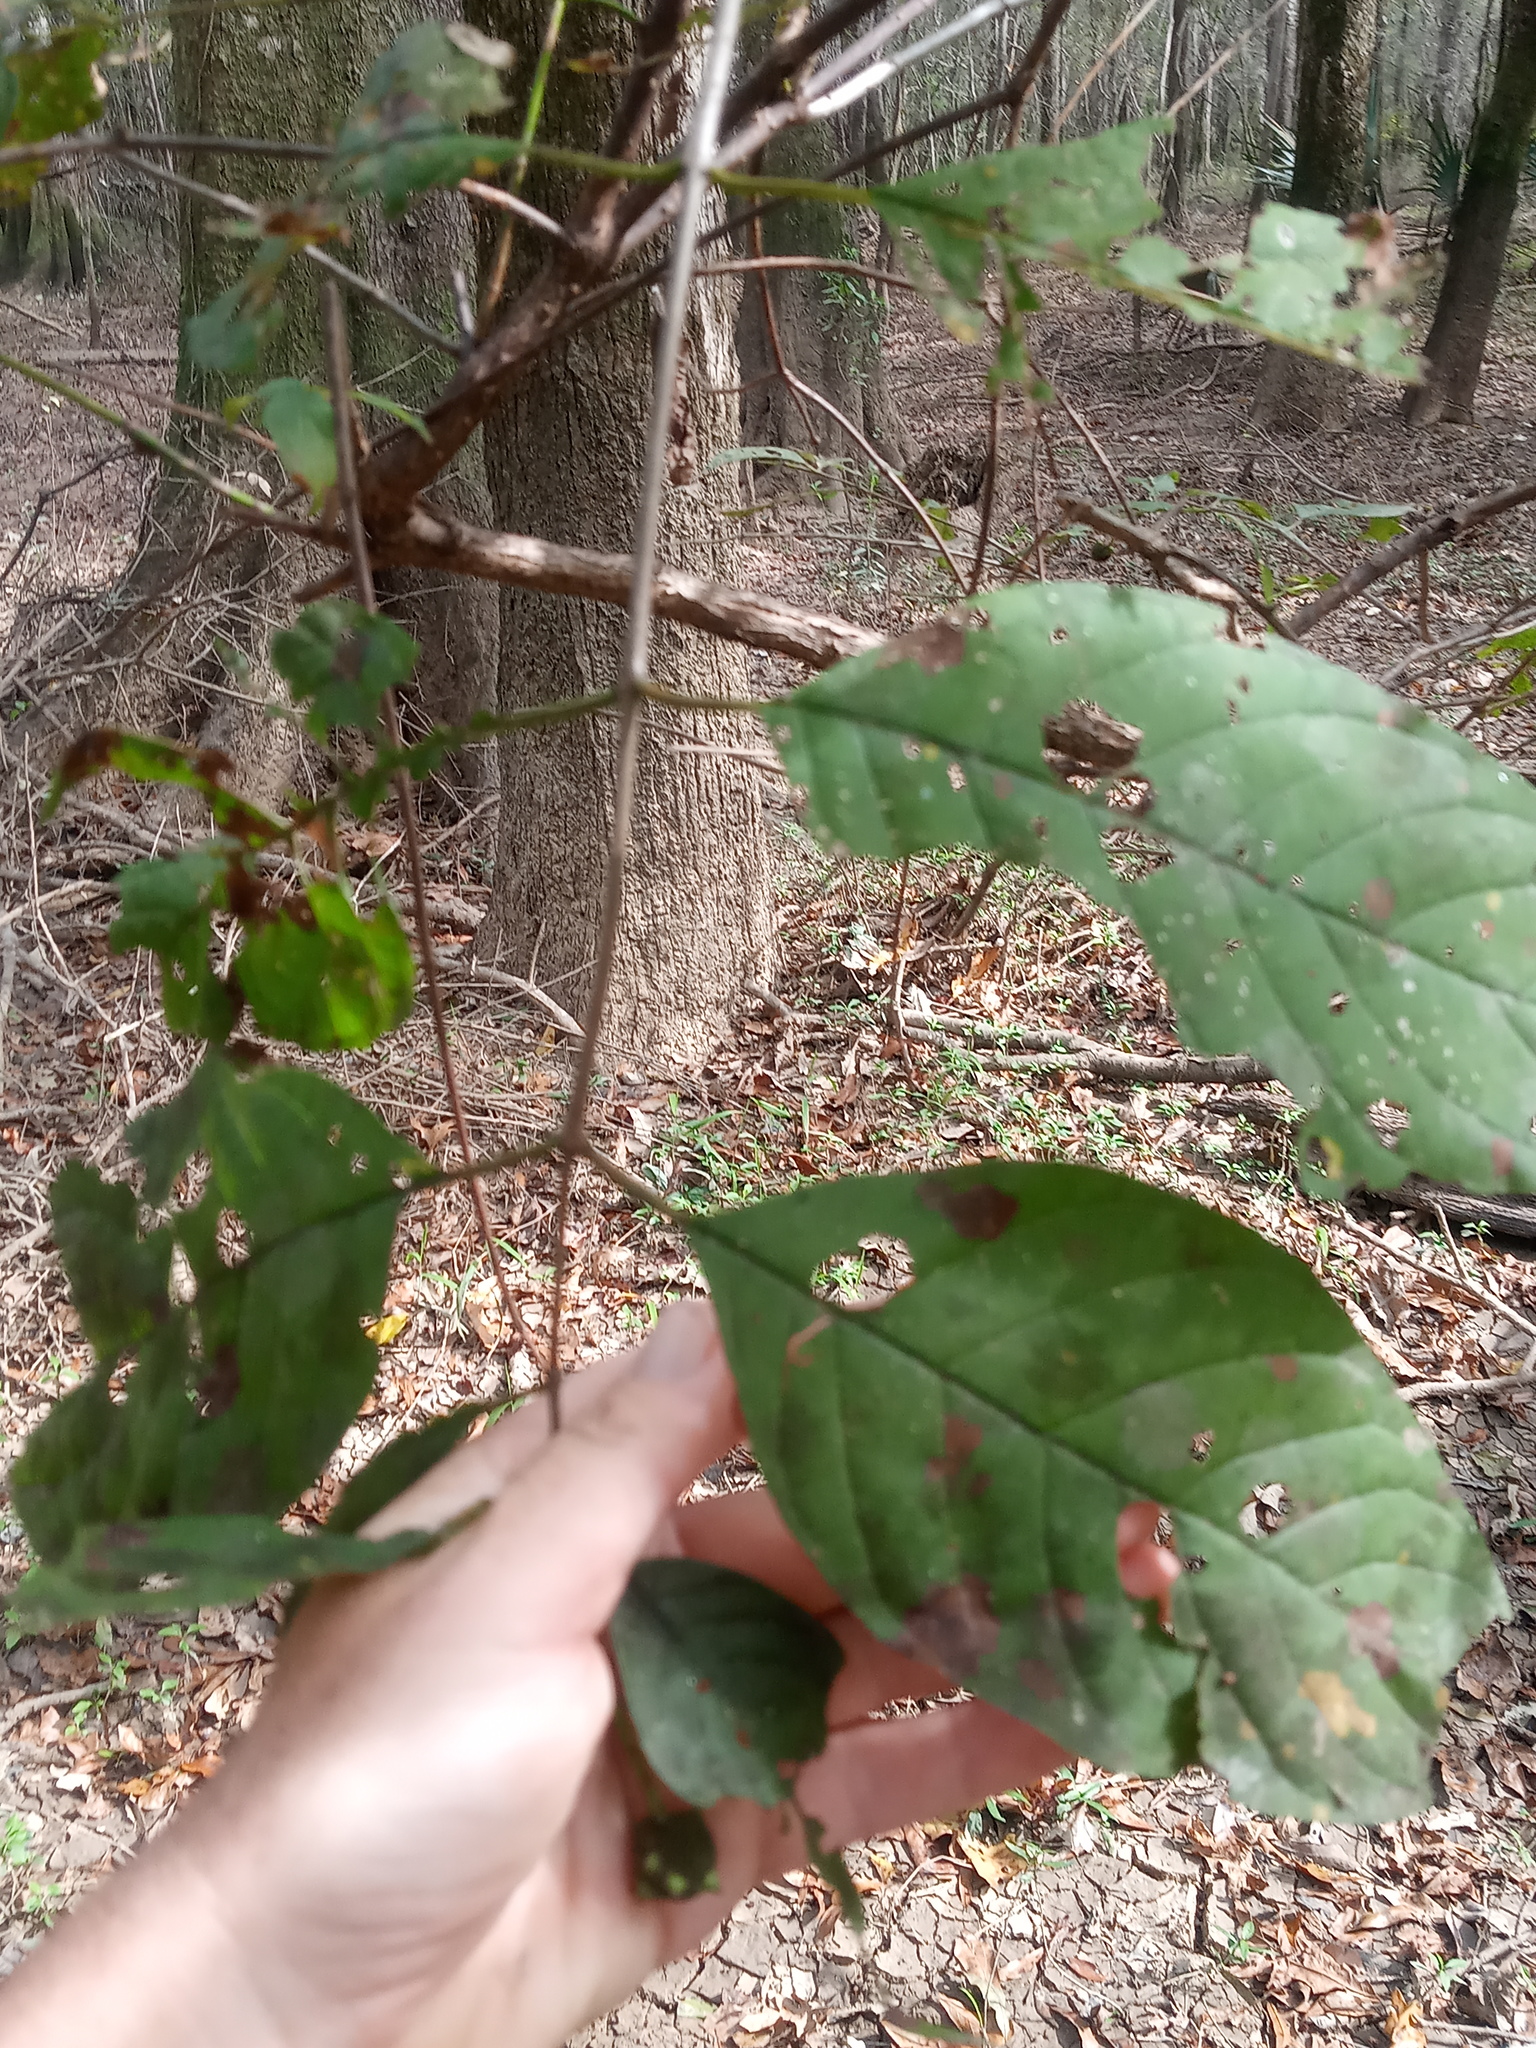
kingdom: Plantae
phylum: Tracheophyta
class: Magnoliopsida
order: Gentianales
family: Rubiaceae
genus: Cephalanthus
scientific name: Cephalanthus occidentalis
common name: Button-willow
